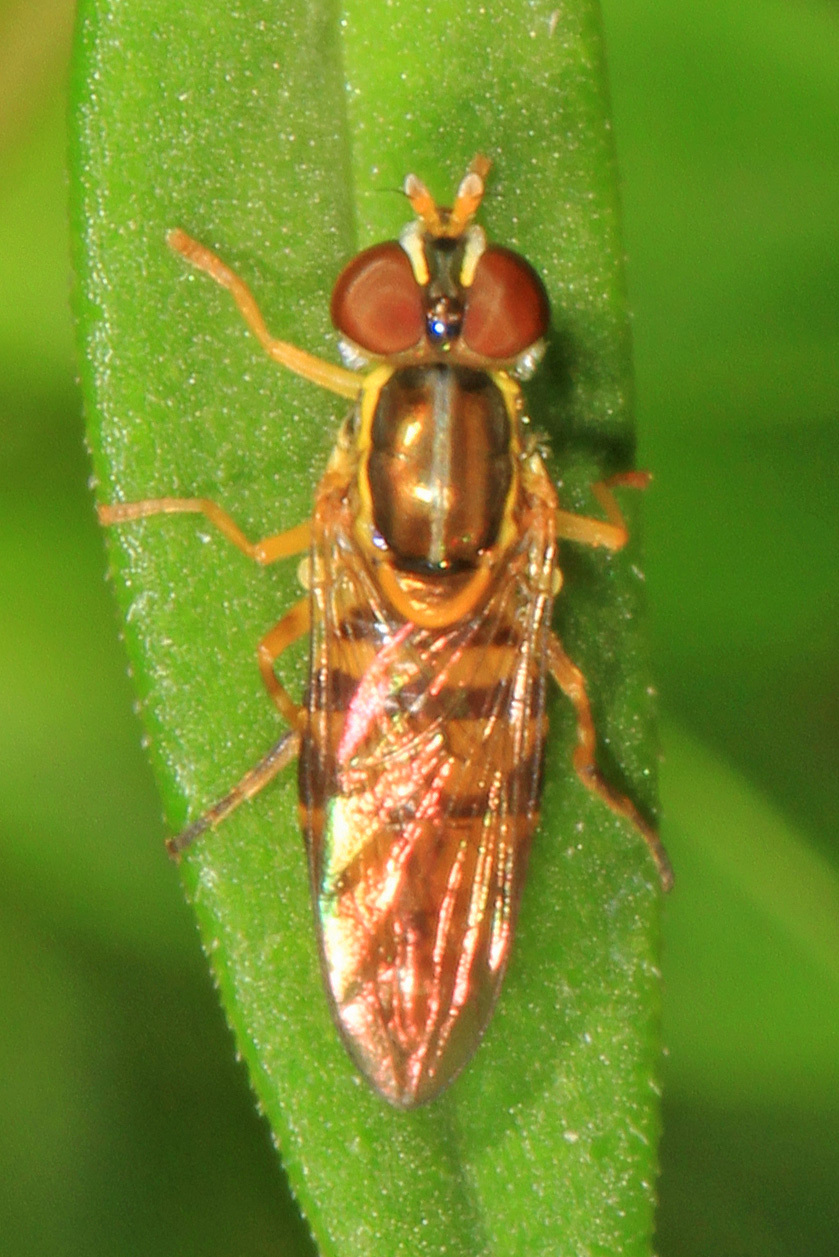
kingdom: Animalia
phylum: Arthropoda
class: Insecta
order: Diptera
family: Syrphidae
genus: Toxomerus
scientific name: Toxomerus floralis
